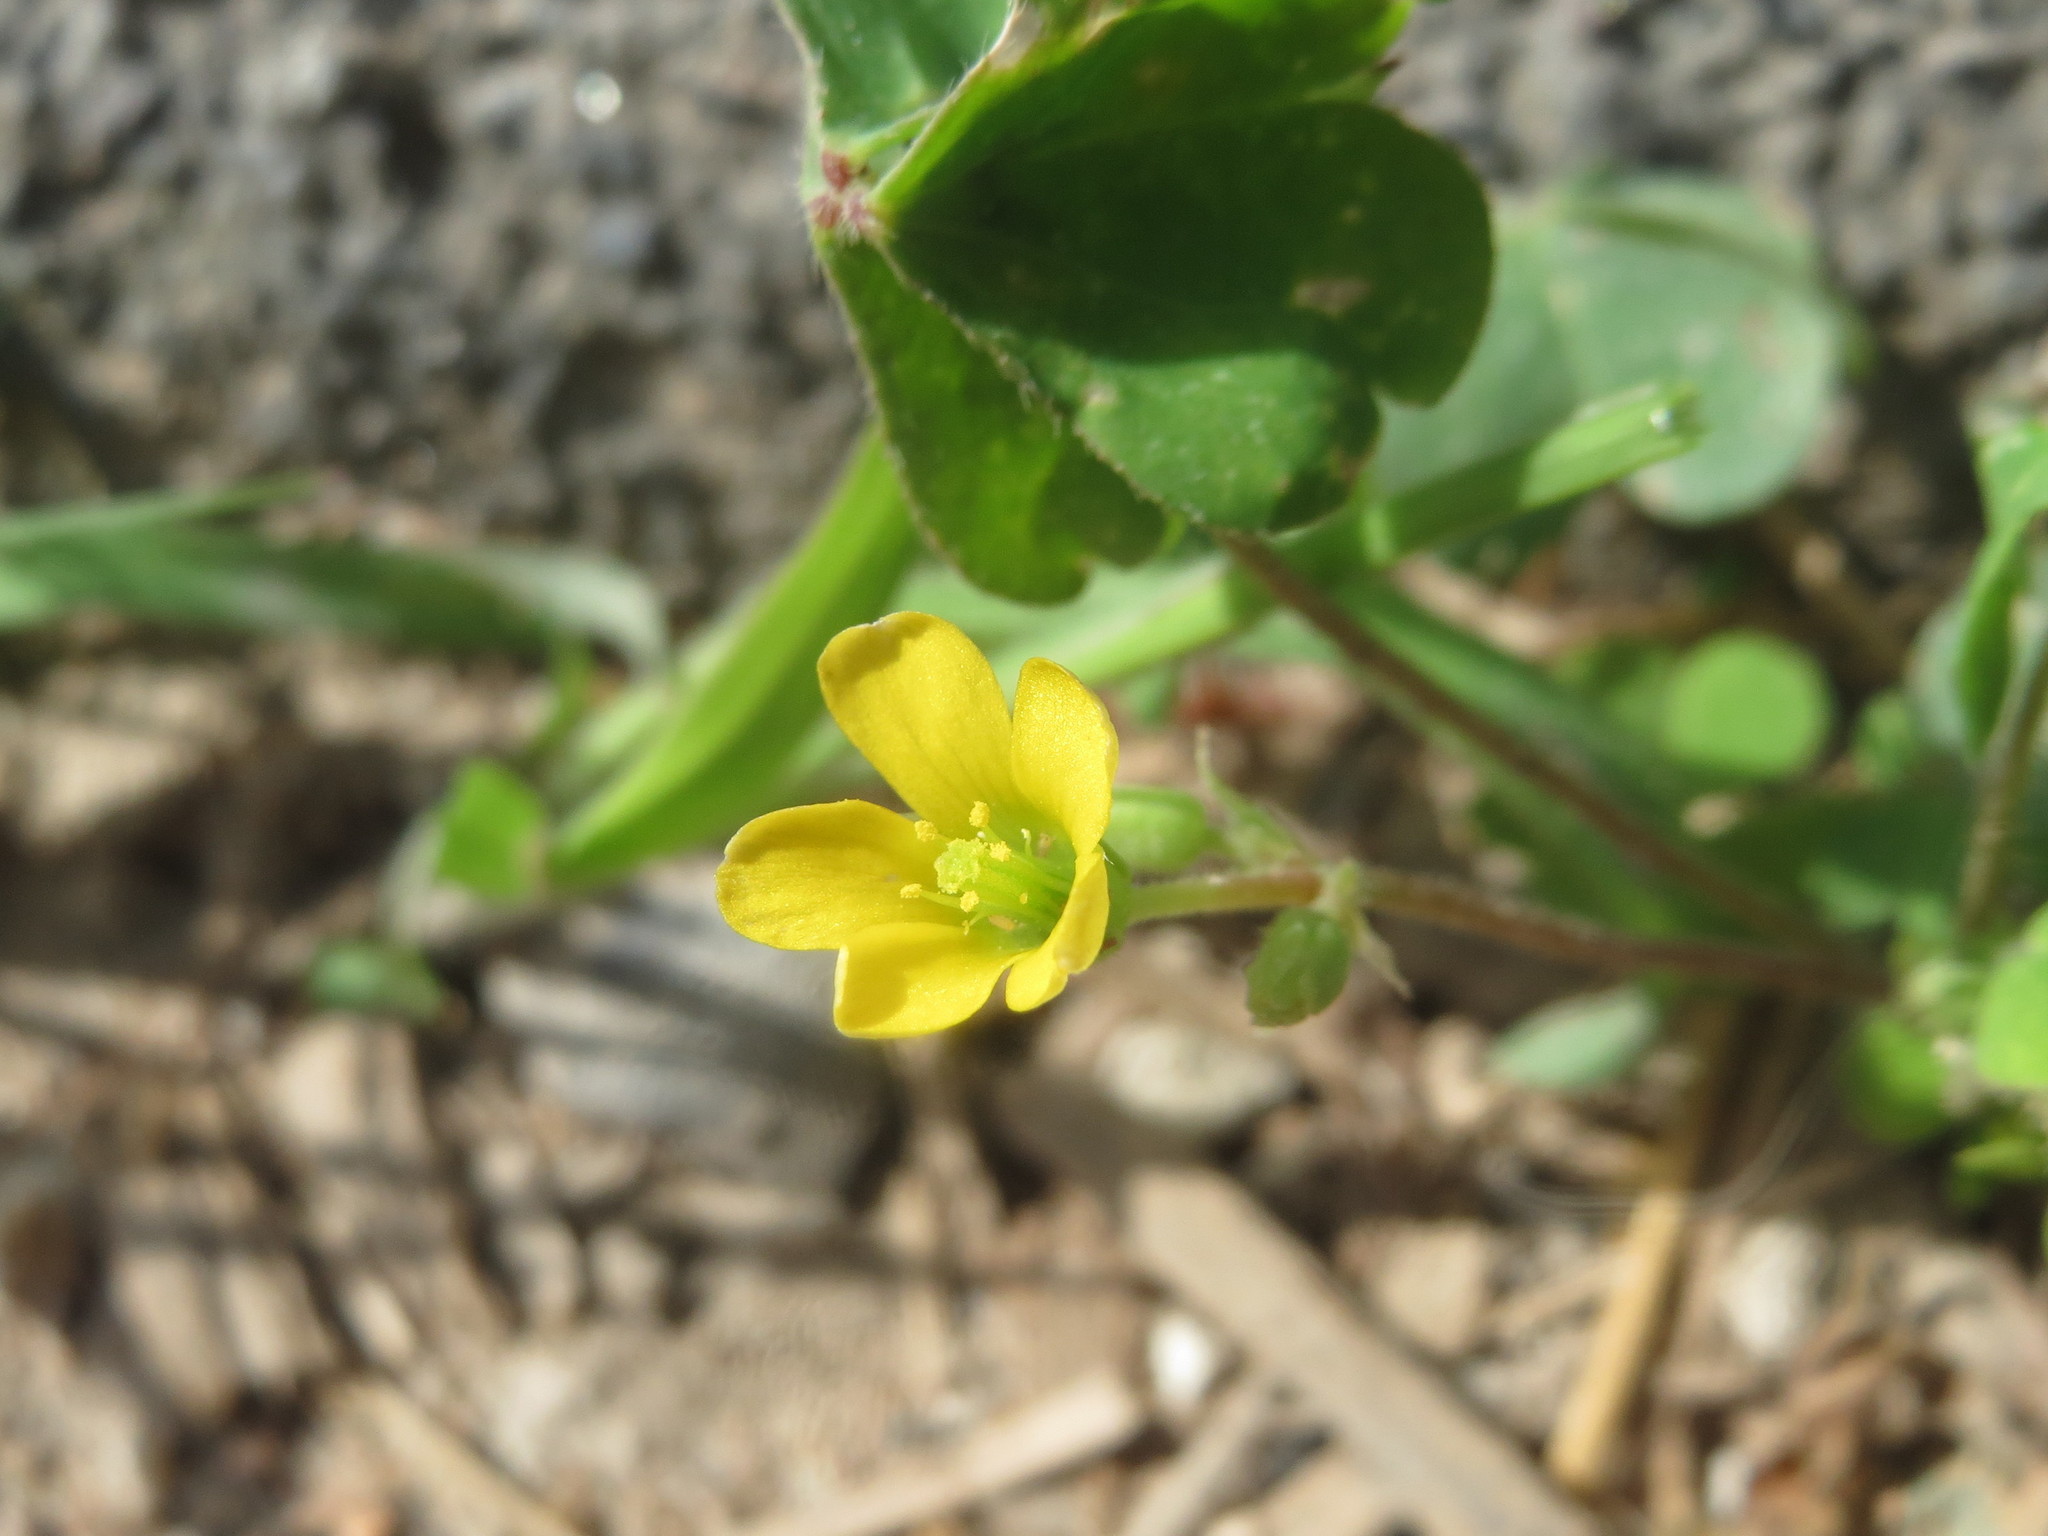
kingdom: Plantae
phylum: Tracheophyta
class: Magnoliopsida
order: Oxalidales
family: Oxalidaceae
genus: Oxalis
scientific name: Oxalis corniculata
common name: Procumbent yellow-sorrel
